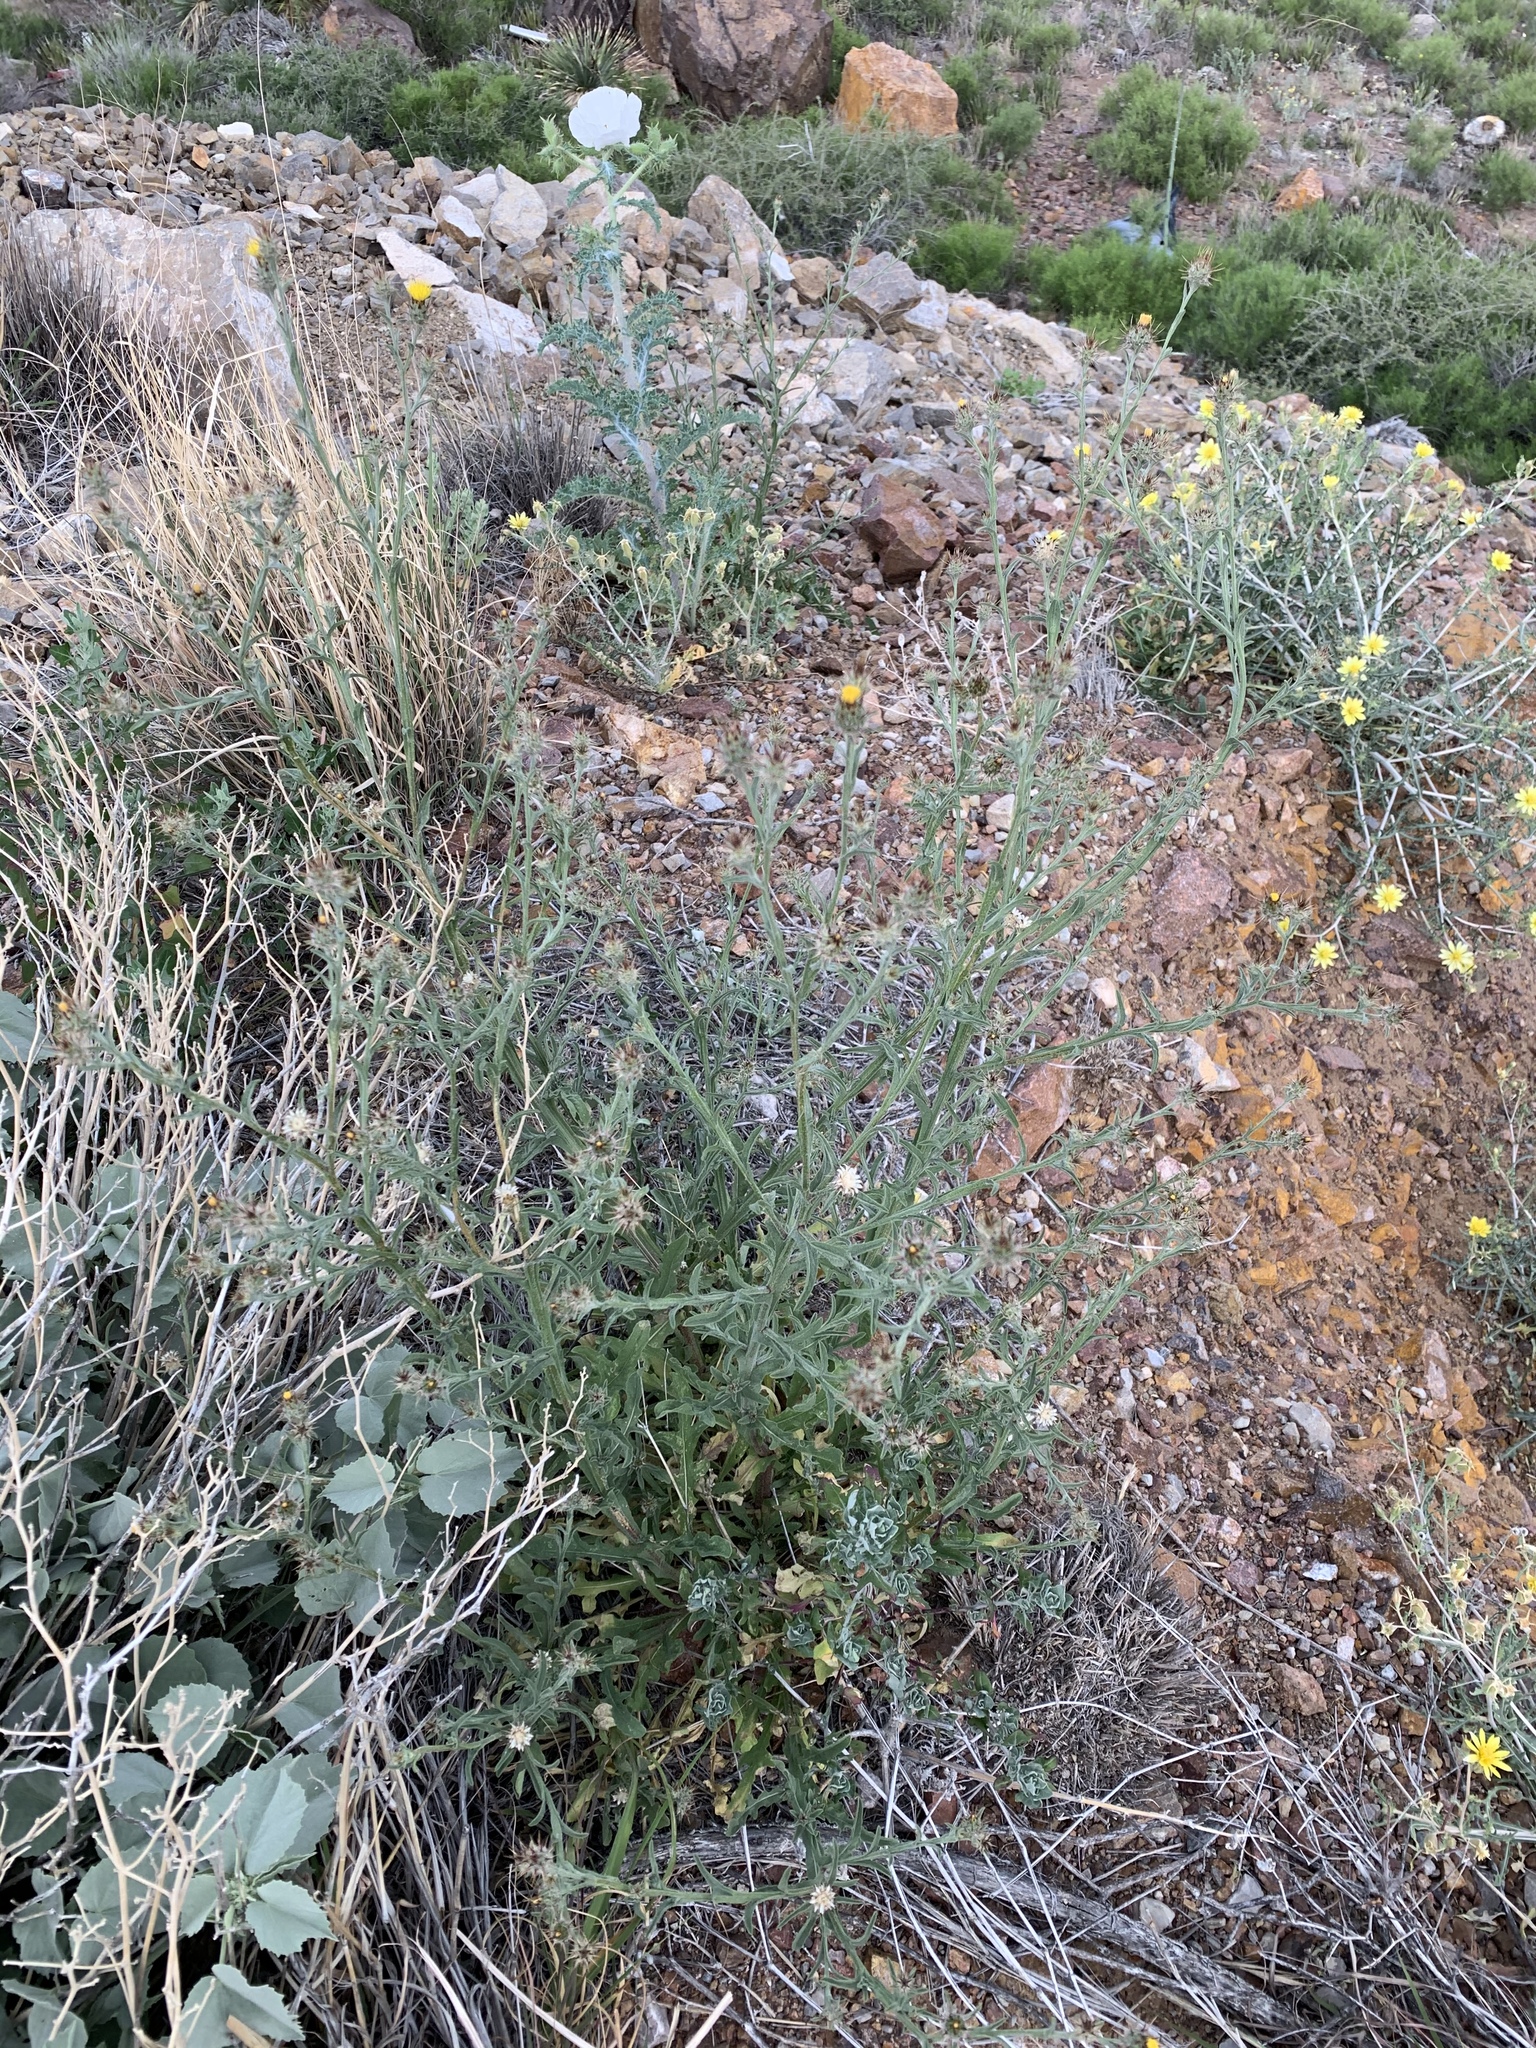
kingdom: Plantae
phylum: Tracheophyta
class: Magnoliopsida
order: Asterales
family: Asteraceae
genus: Centaurea
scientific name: Centaurea melitensis
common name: Maltese star-thistle
